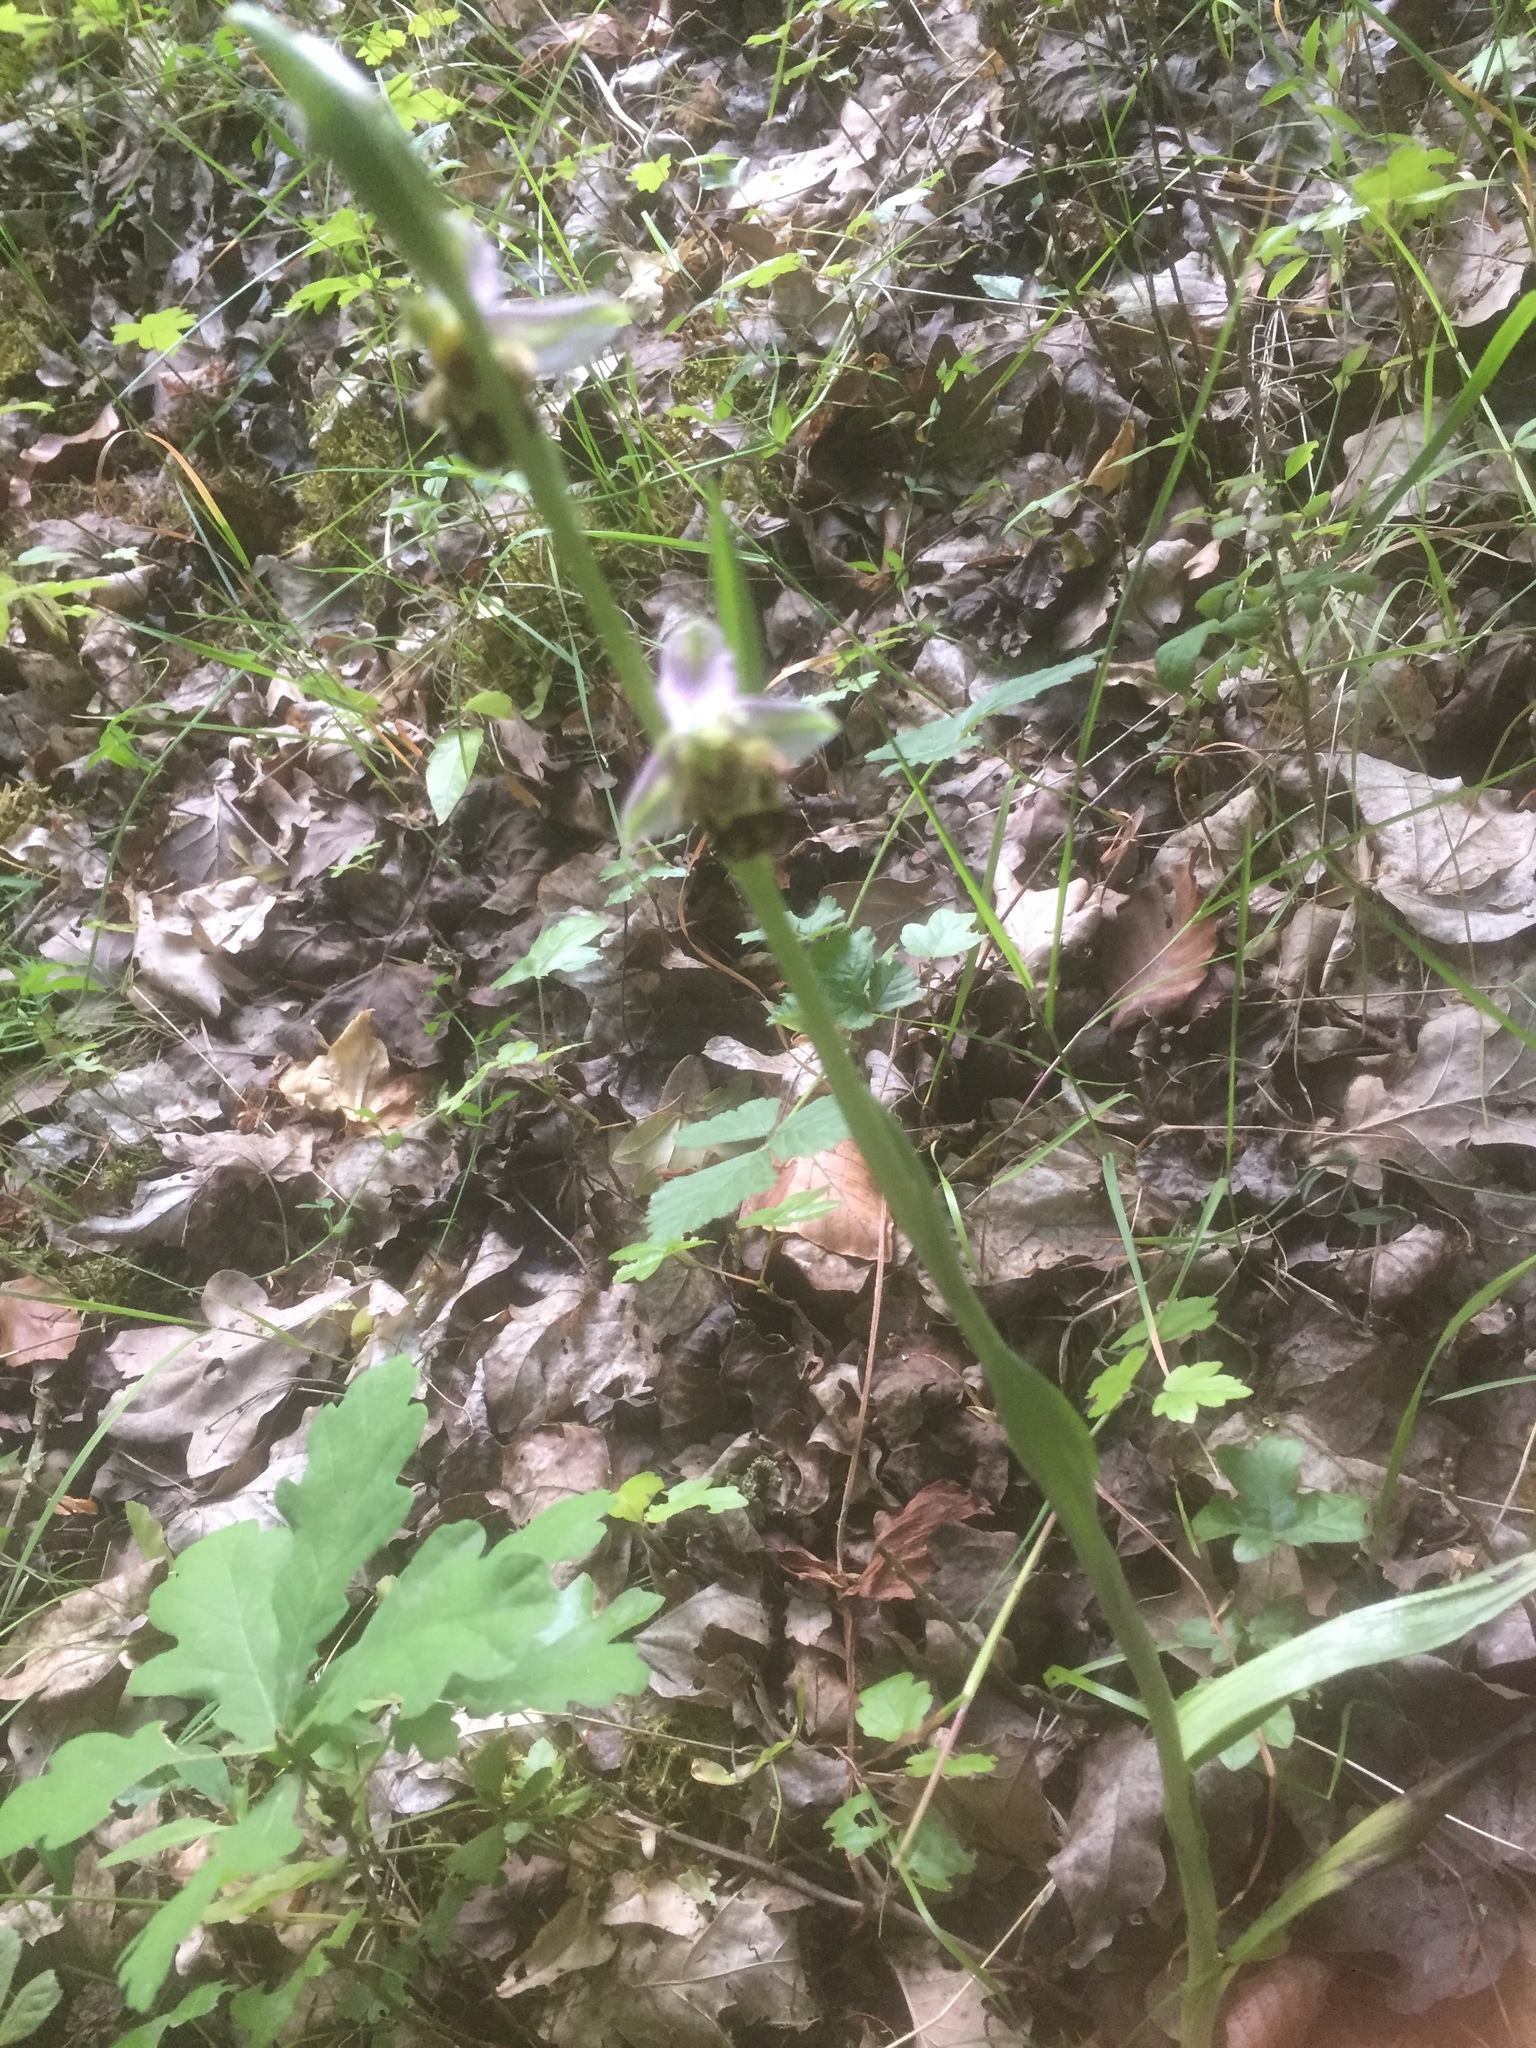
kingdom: Plantae
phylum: Tracheophyta
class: Liliopsida
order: Asparagales
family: Orchidaceae
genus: Ophrys
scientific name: Ophrys apifera
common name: Bee orchid
